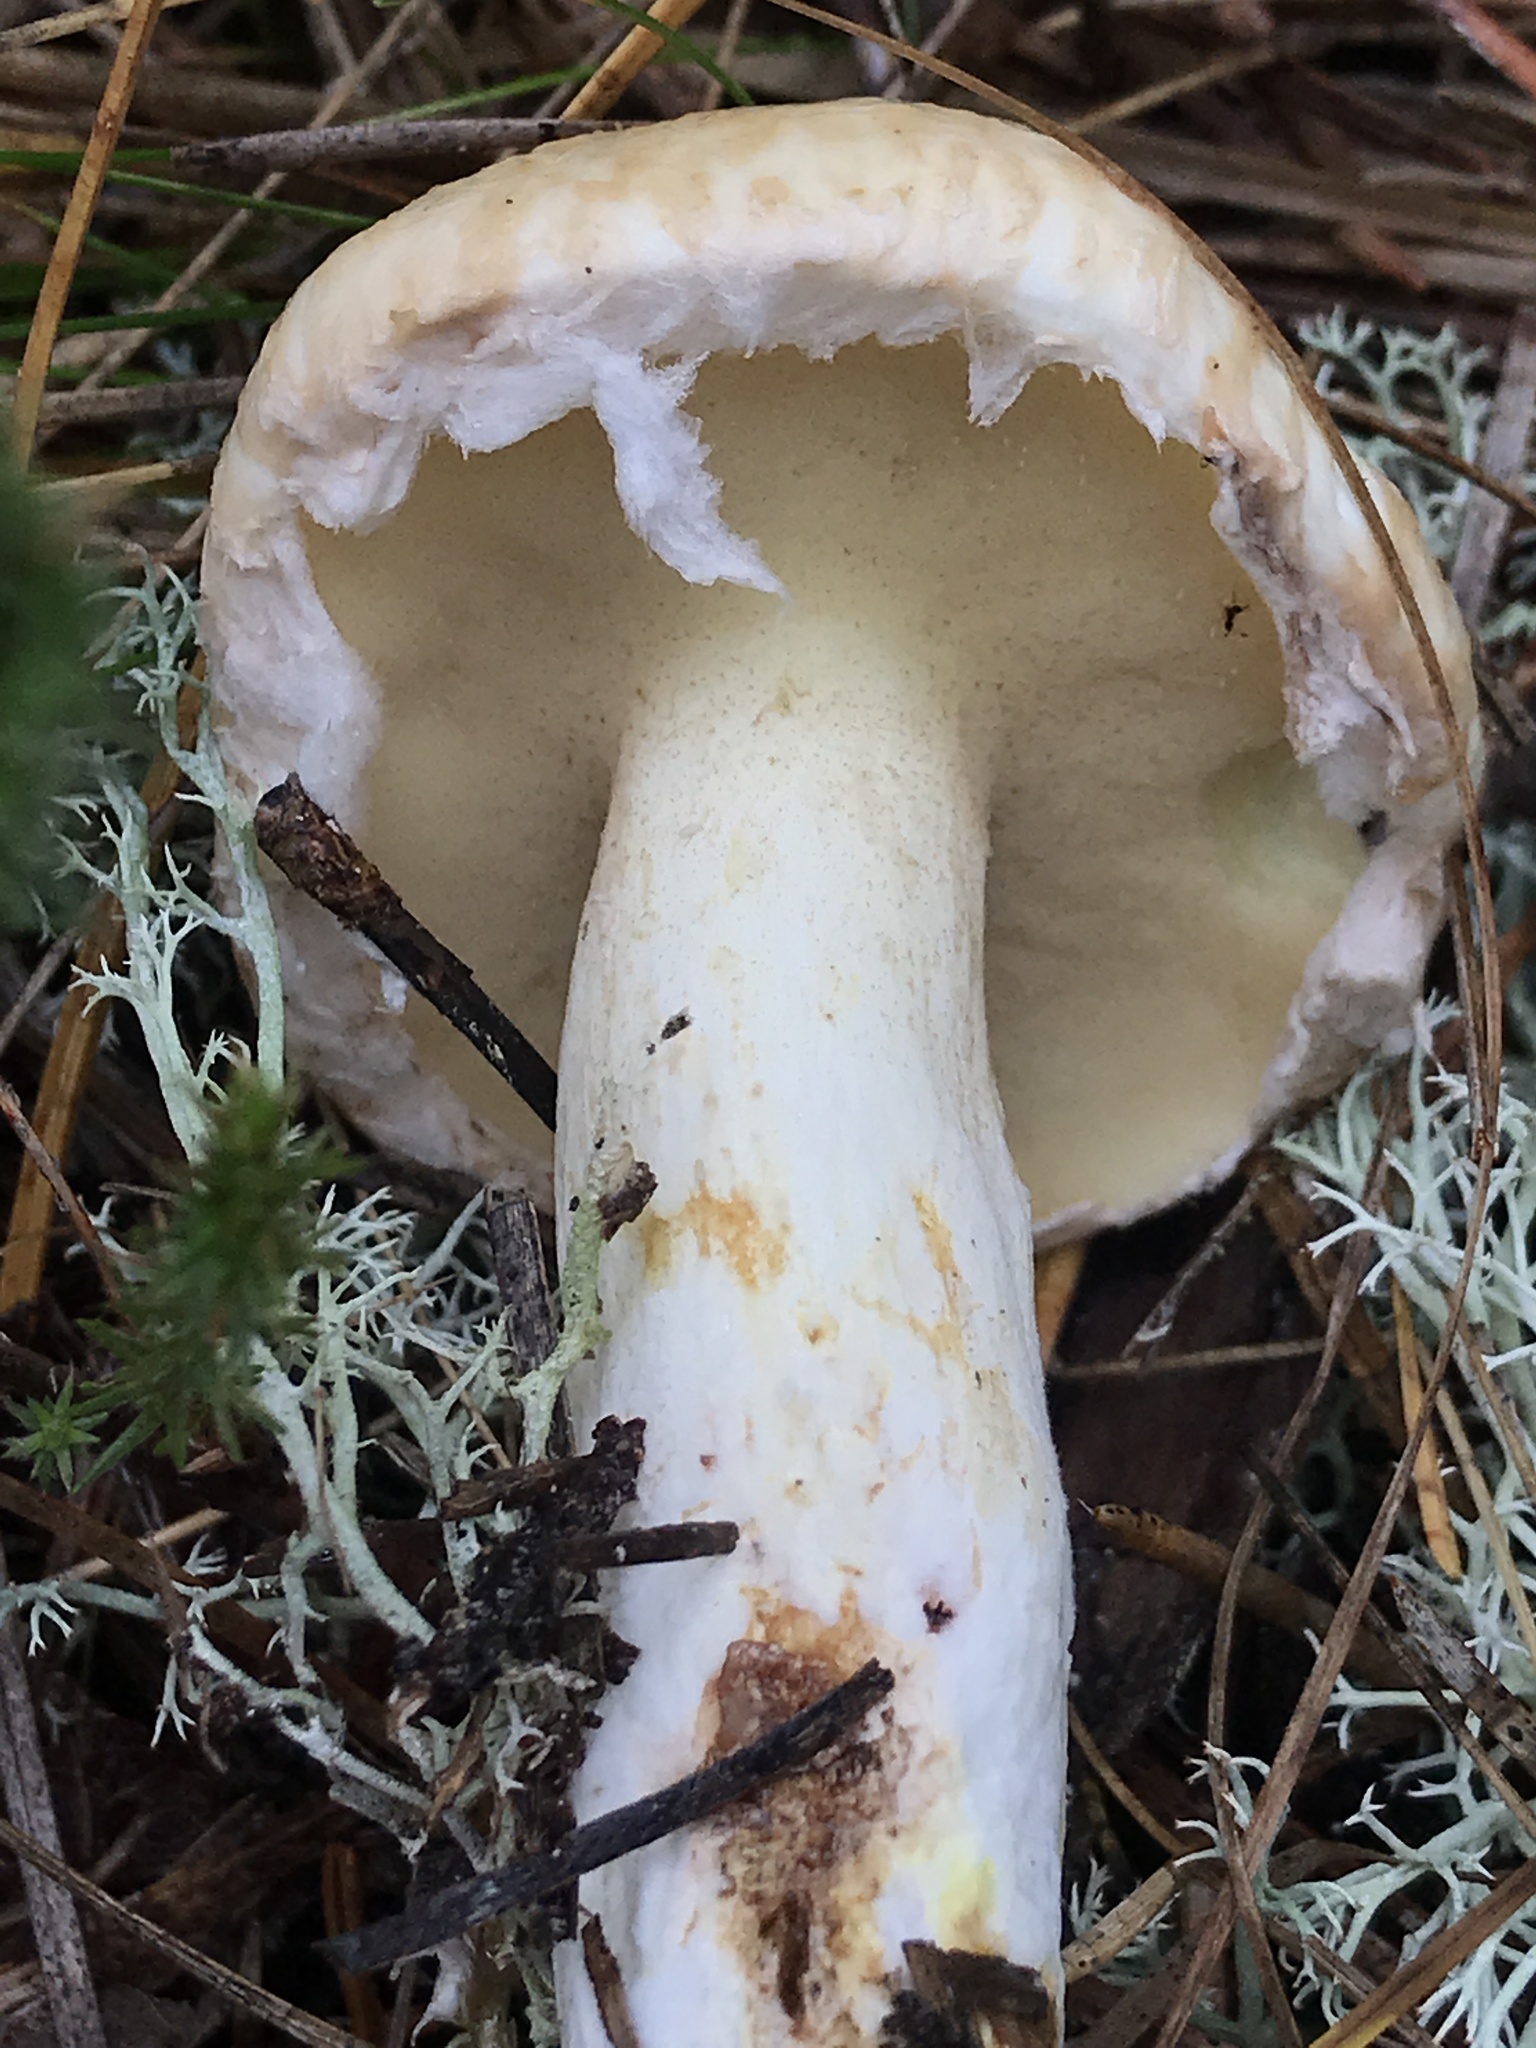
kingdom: Fungi
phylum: Basidiomycota
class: Agaricomycetes
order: Boletales
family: Suillaceae
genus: Suillus
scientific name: Suillus glandulosipes
